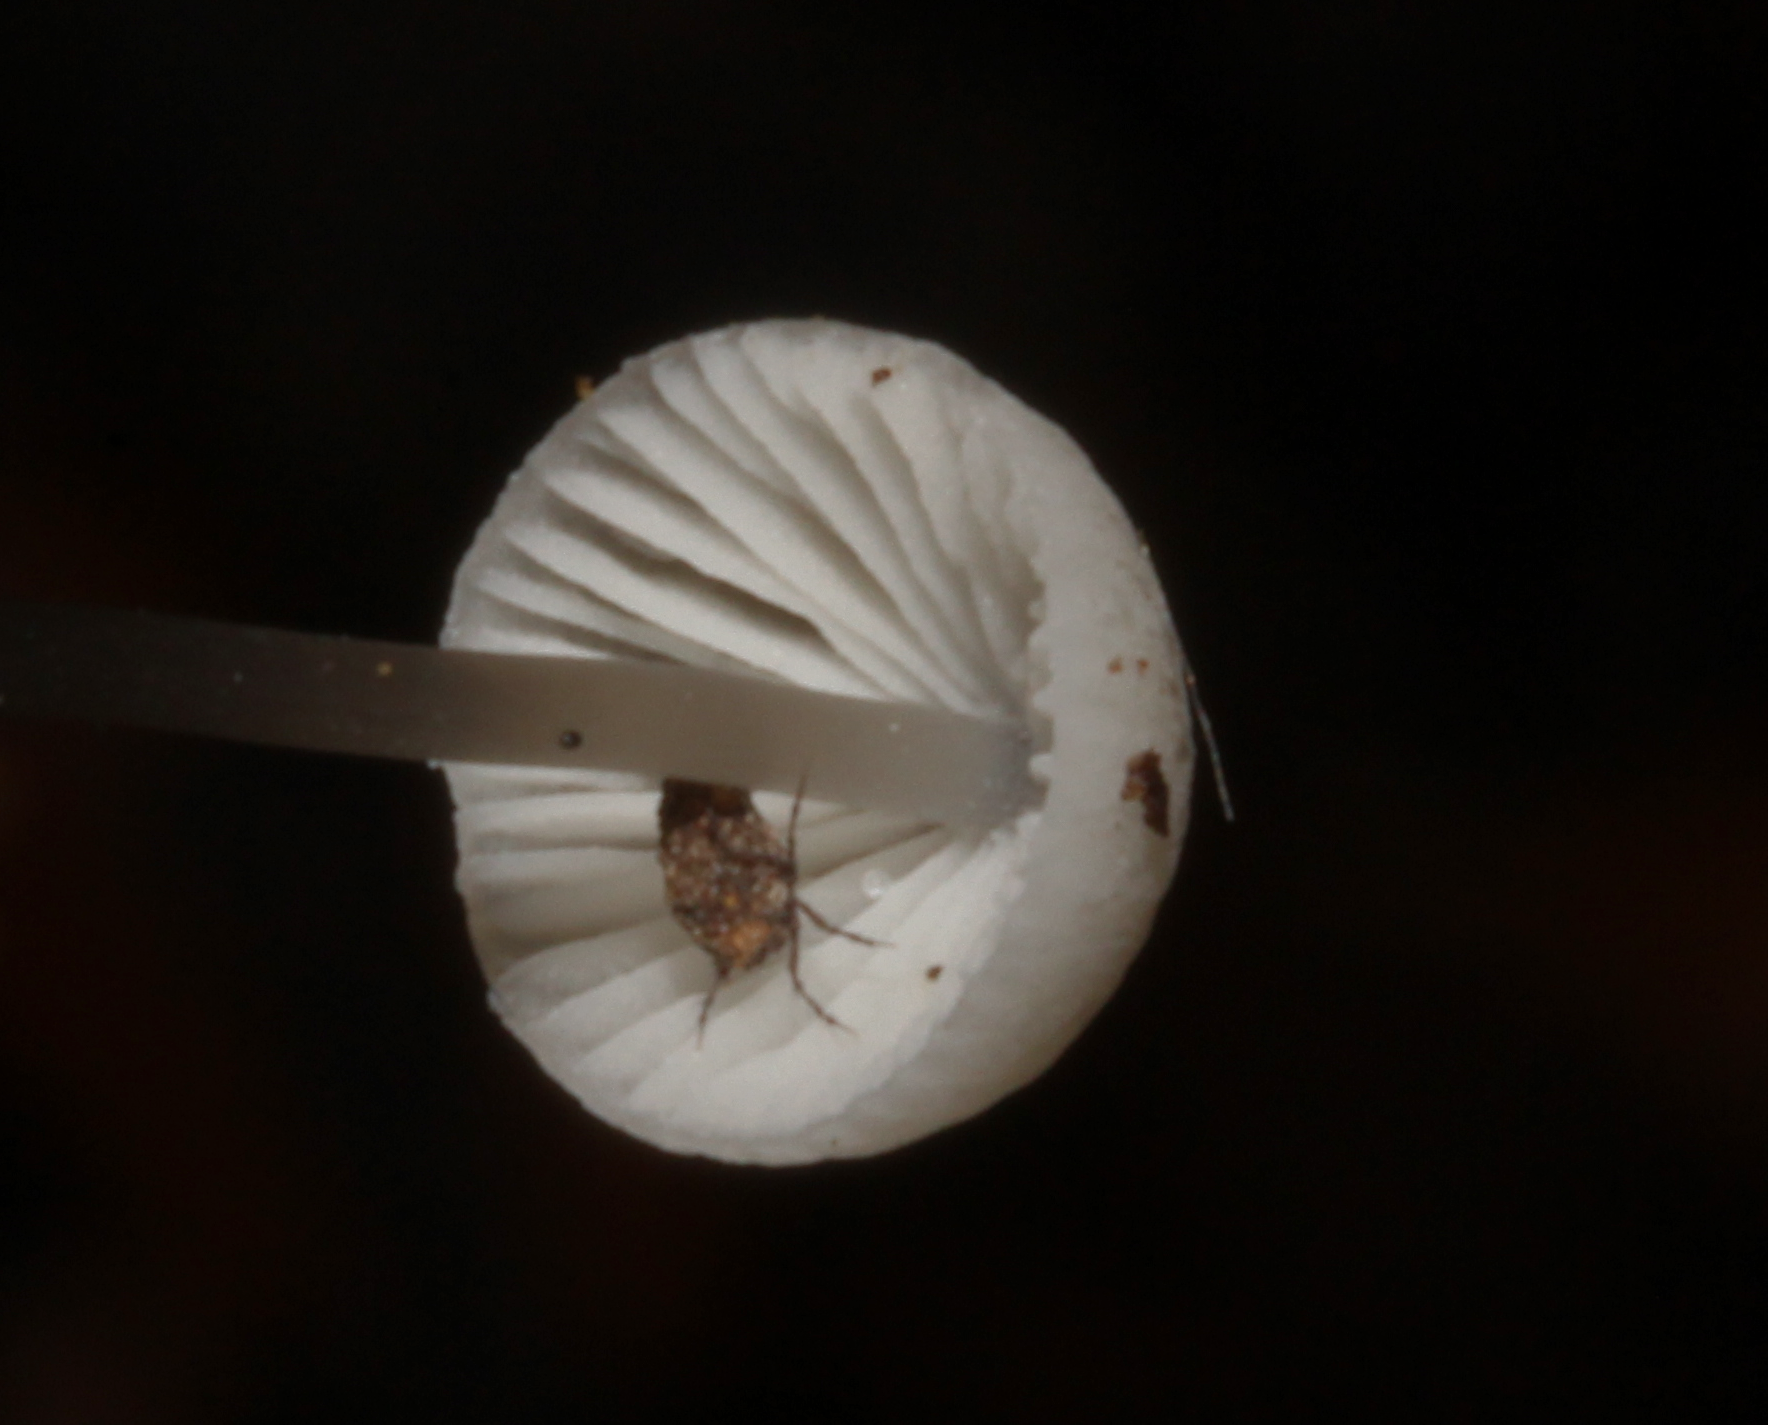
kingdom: Fungi
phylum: Basidiomycota
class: Agaricomycetes
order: Agaricales
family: Mycenaceae
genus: Mycena
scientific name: Mycena
